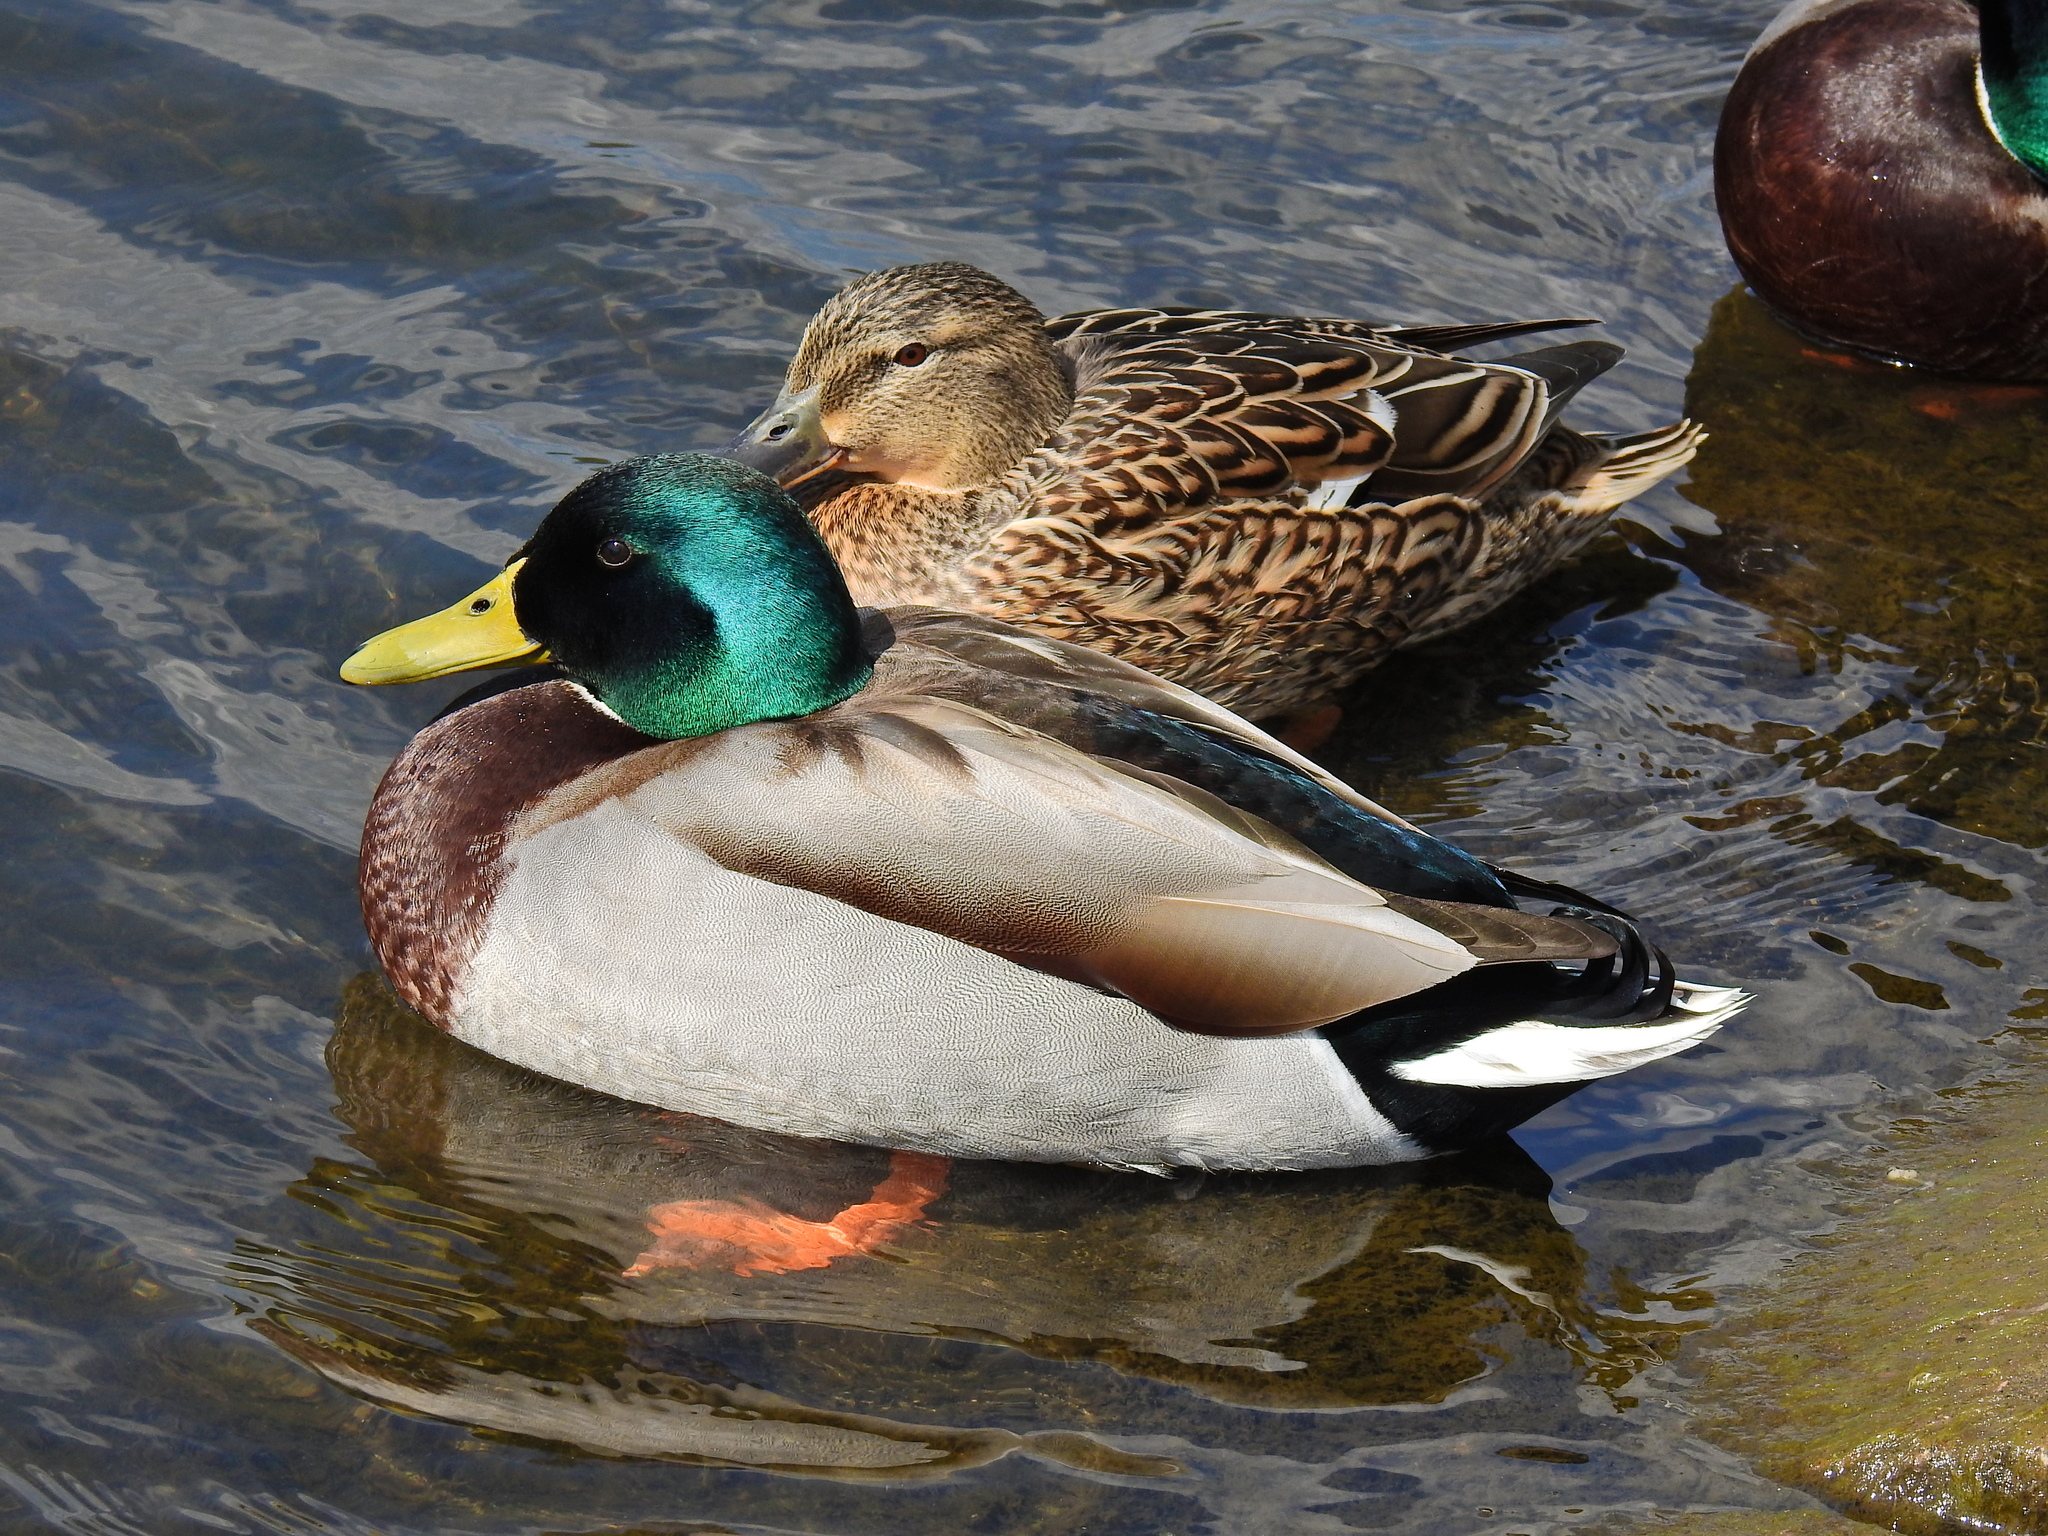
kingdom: Animalia
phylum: Chordata
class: Aves
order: Anseriformes
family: Anatidae
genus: Anas
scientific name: Anas platyrhynchos
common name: Mallard
